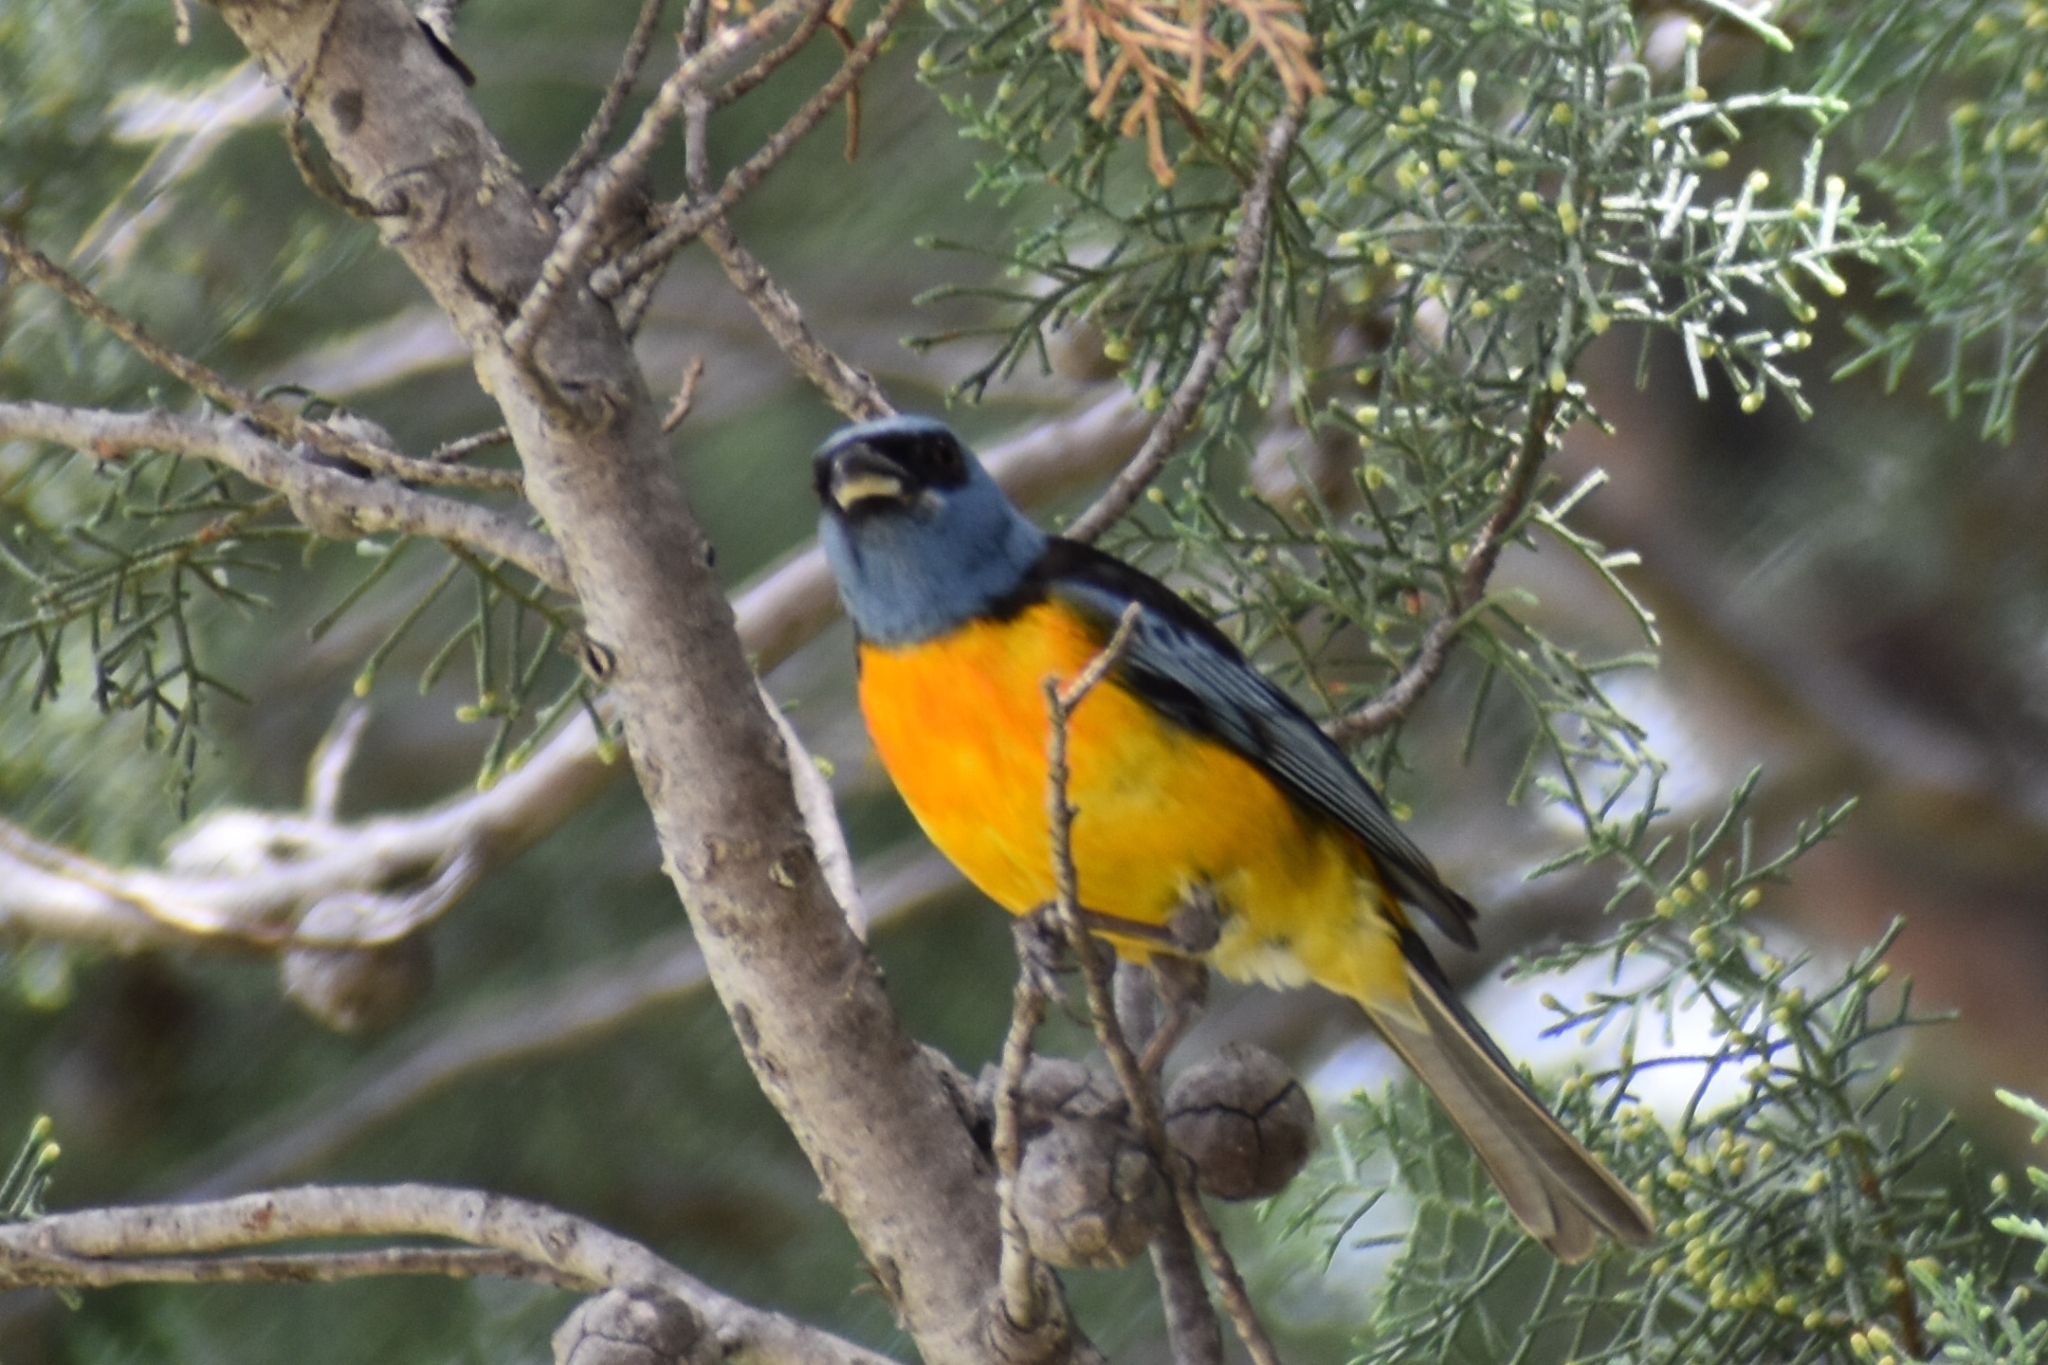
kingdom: Animalia
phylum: Chordata
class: Aves
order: Passeriformes
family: Thraupidae
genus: Rauenia
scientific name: Rauenia bonariensis
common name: Blue-and-yellow tanager
